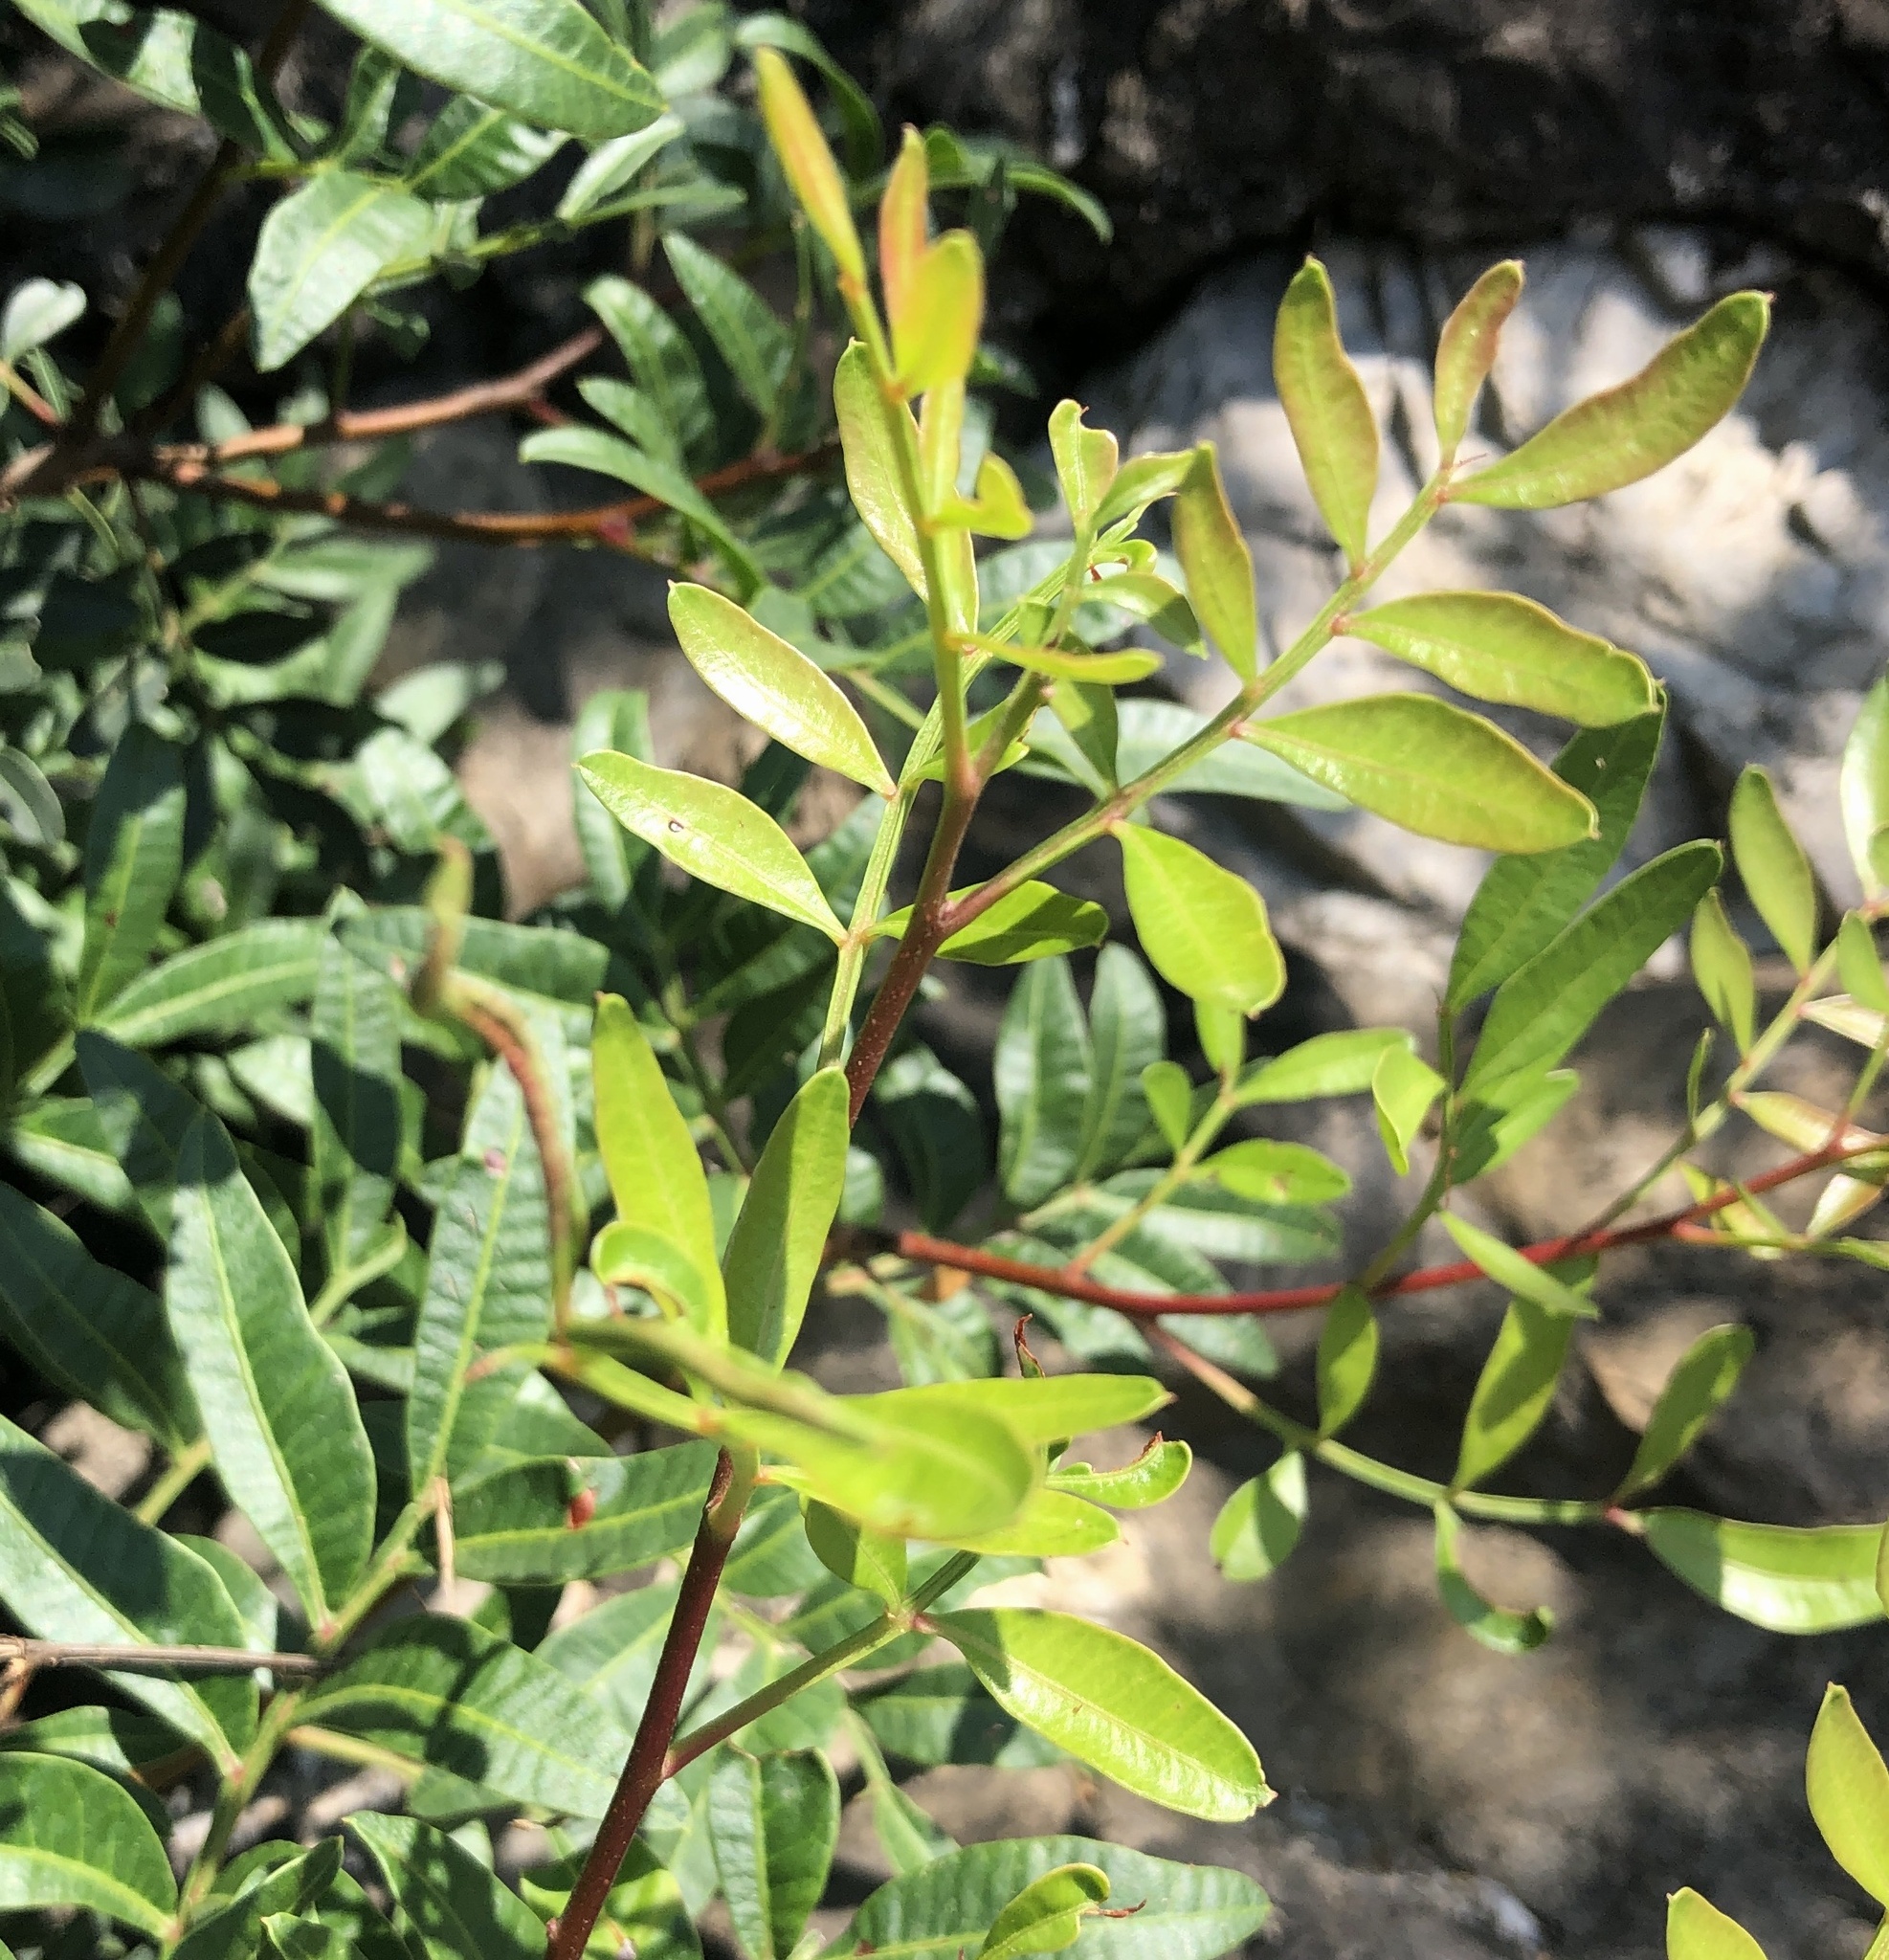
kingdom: Plantae
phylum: Tracheophyta
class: Magnoliopsida
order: Sapindales
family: Anacardiaceae
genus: Pistacia
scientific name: Pistacia lentiscus
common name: Lentisk
